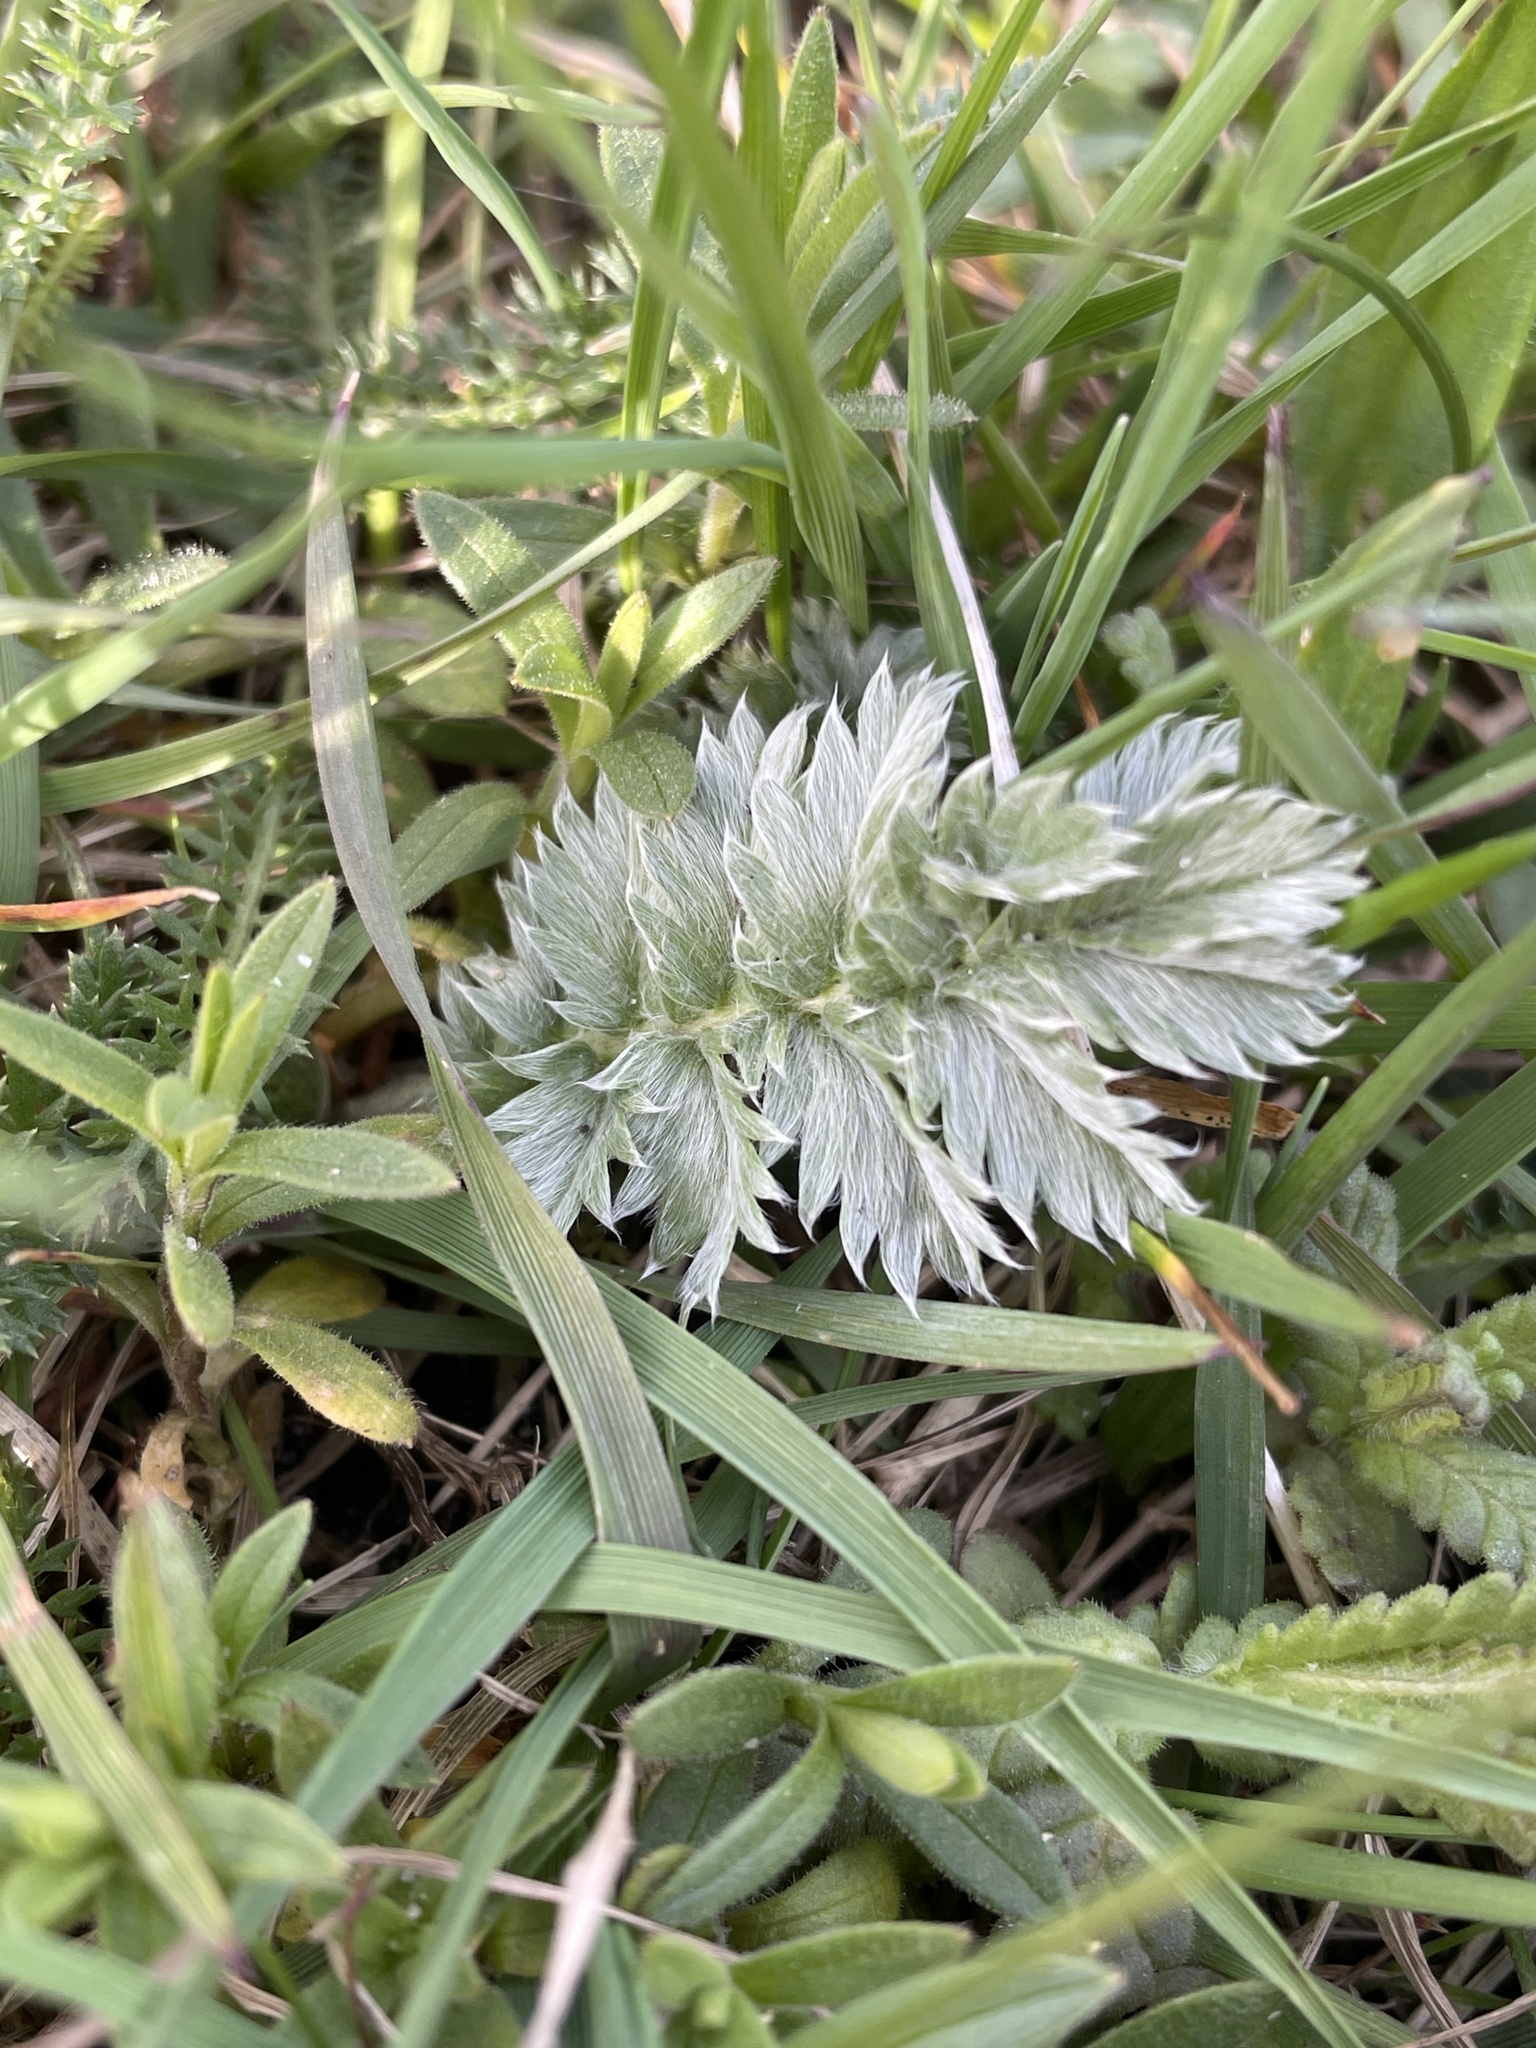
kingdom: Plantae
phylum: Tracheophyta
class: Magnoliopsida
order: Rosales
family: Rosaceae
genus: Argentina
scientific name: Argentina anserina
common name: Common silverweed
